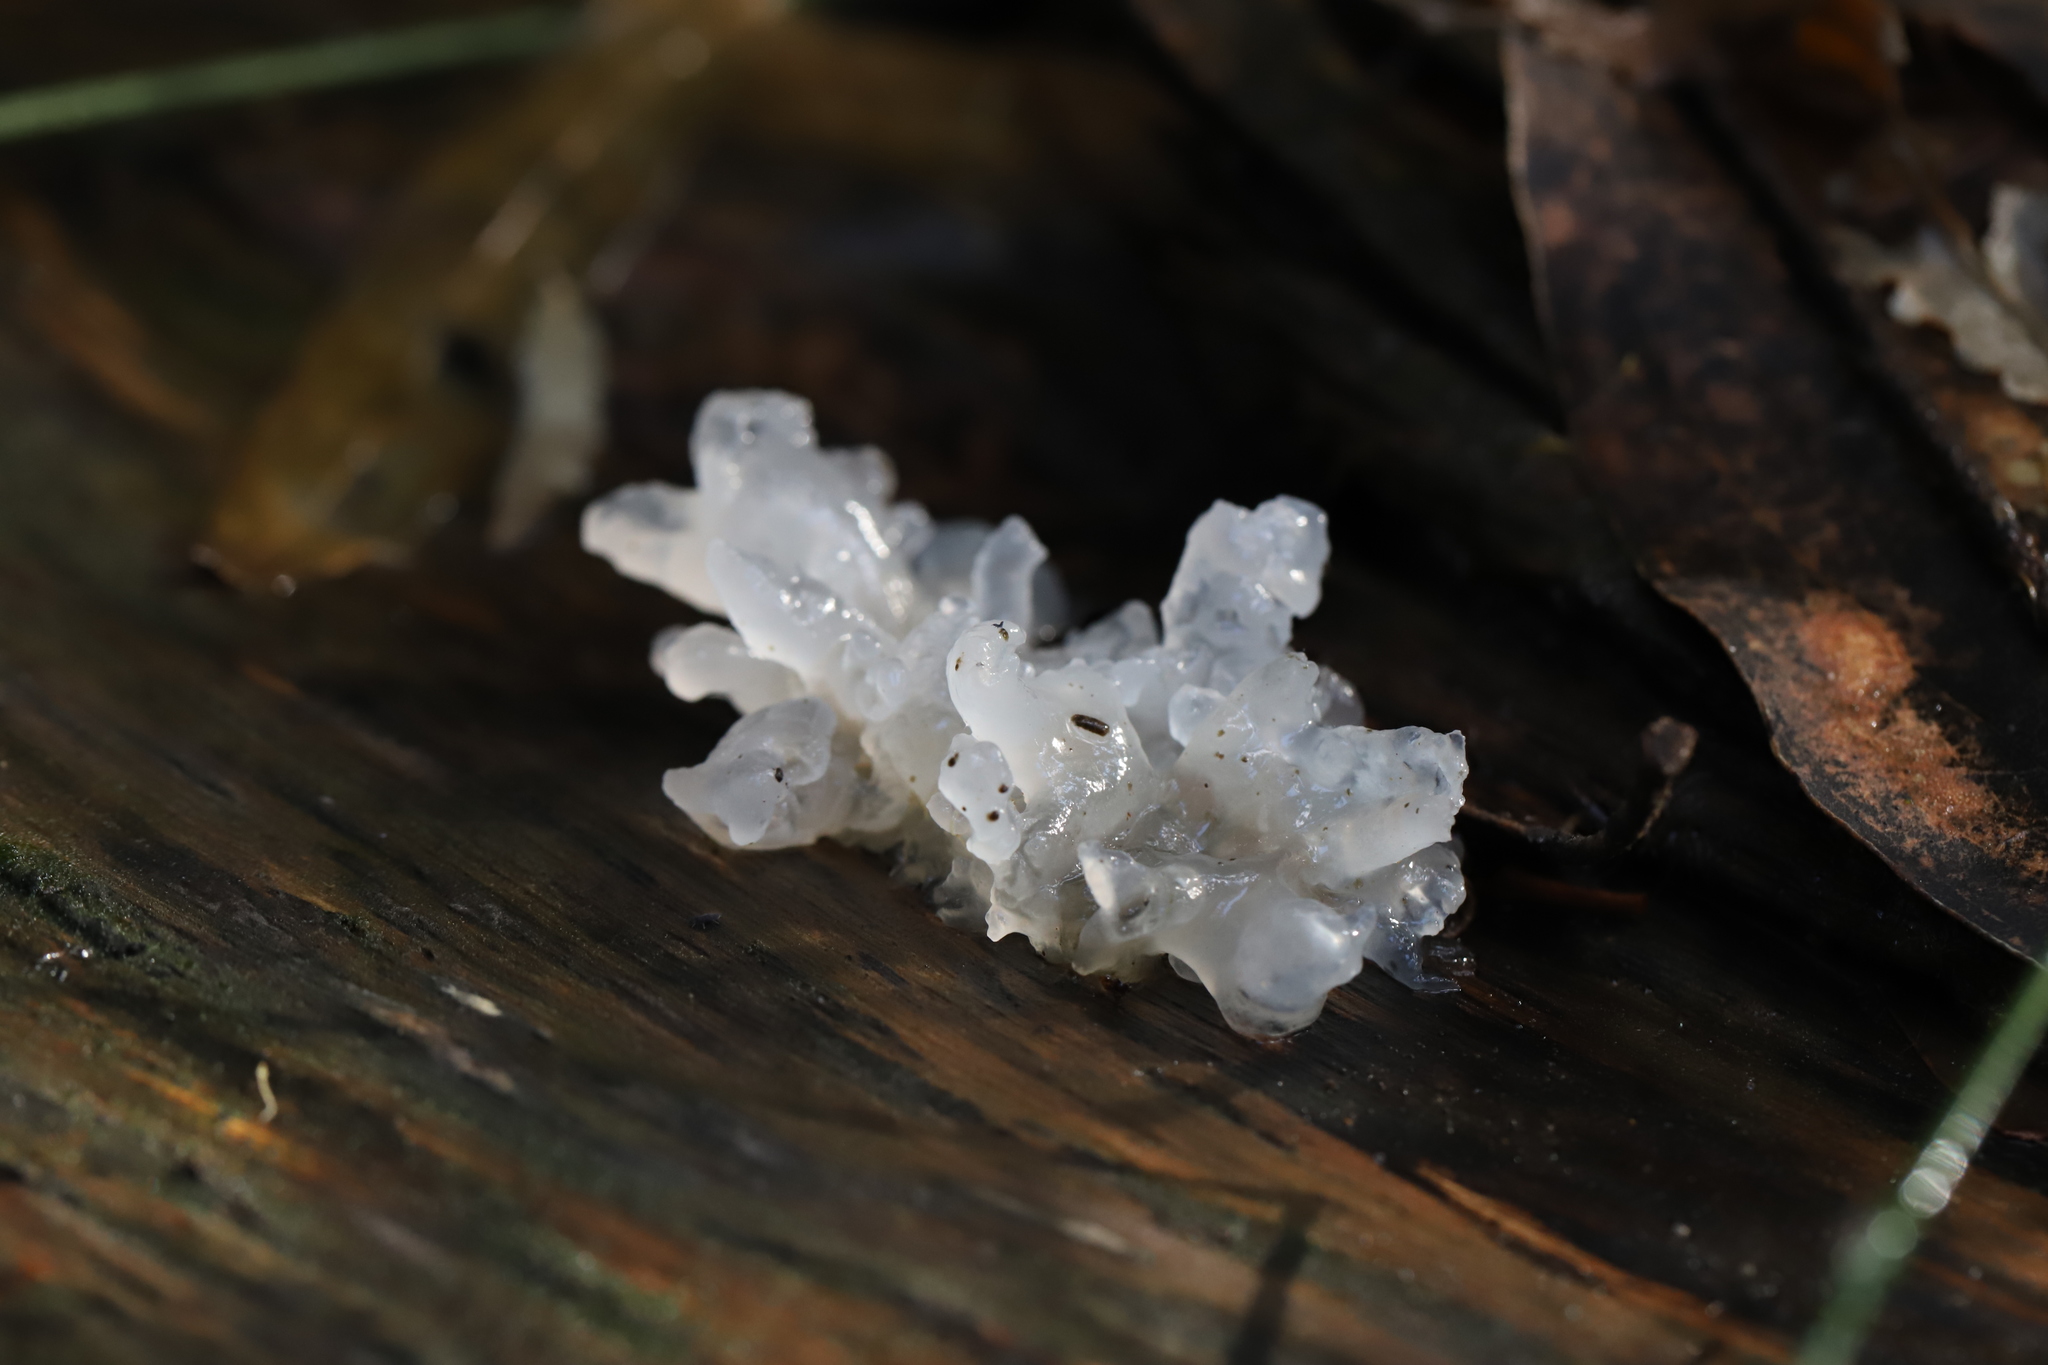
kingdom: Fungi
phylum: Basidiomycota
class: Tremellomycetes
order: Tremellales
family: Tremellaceae
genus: Tremella
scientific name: Tremella fuciformis
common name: Snow fungus
